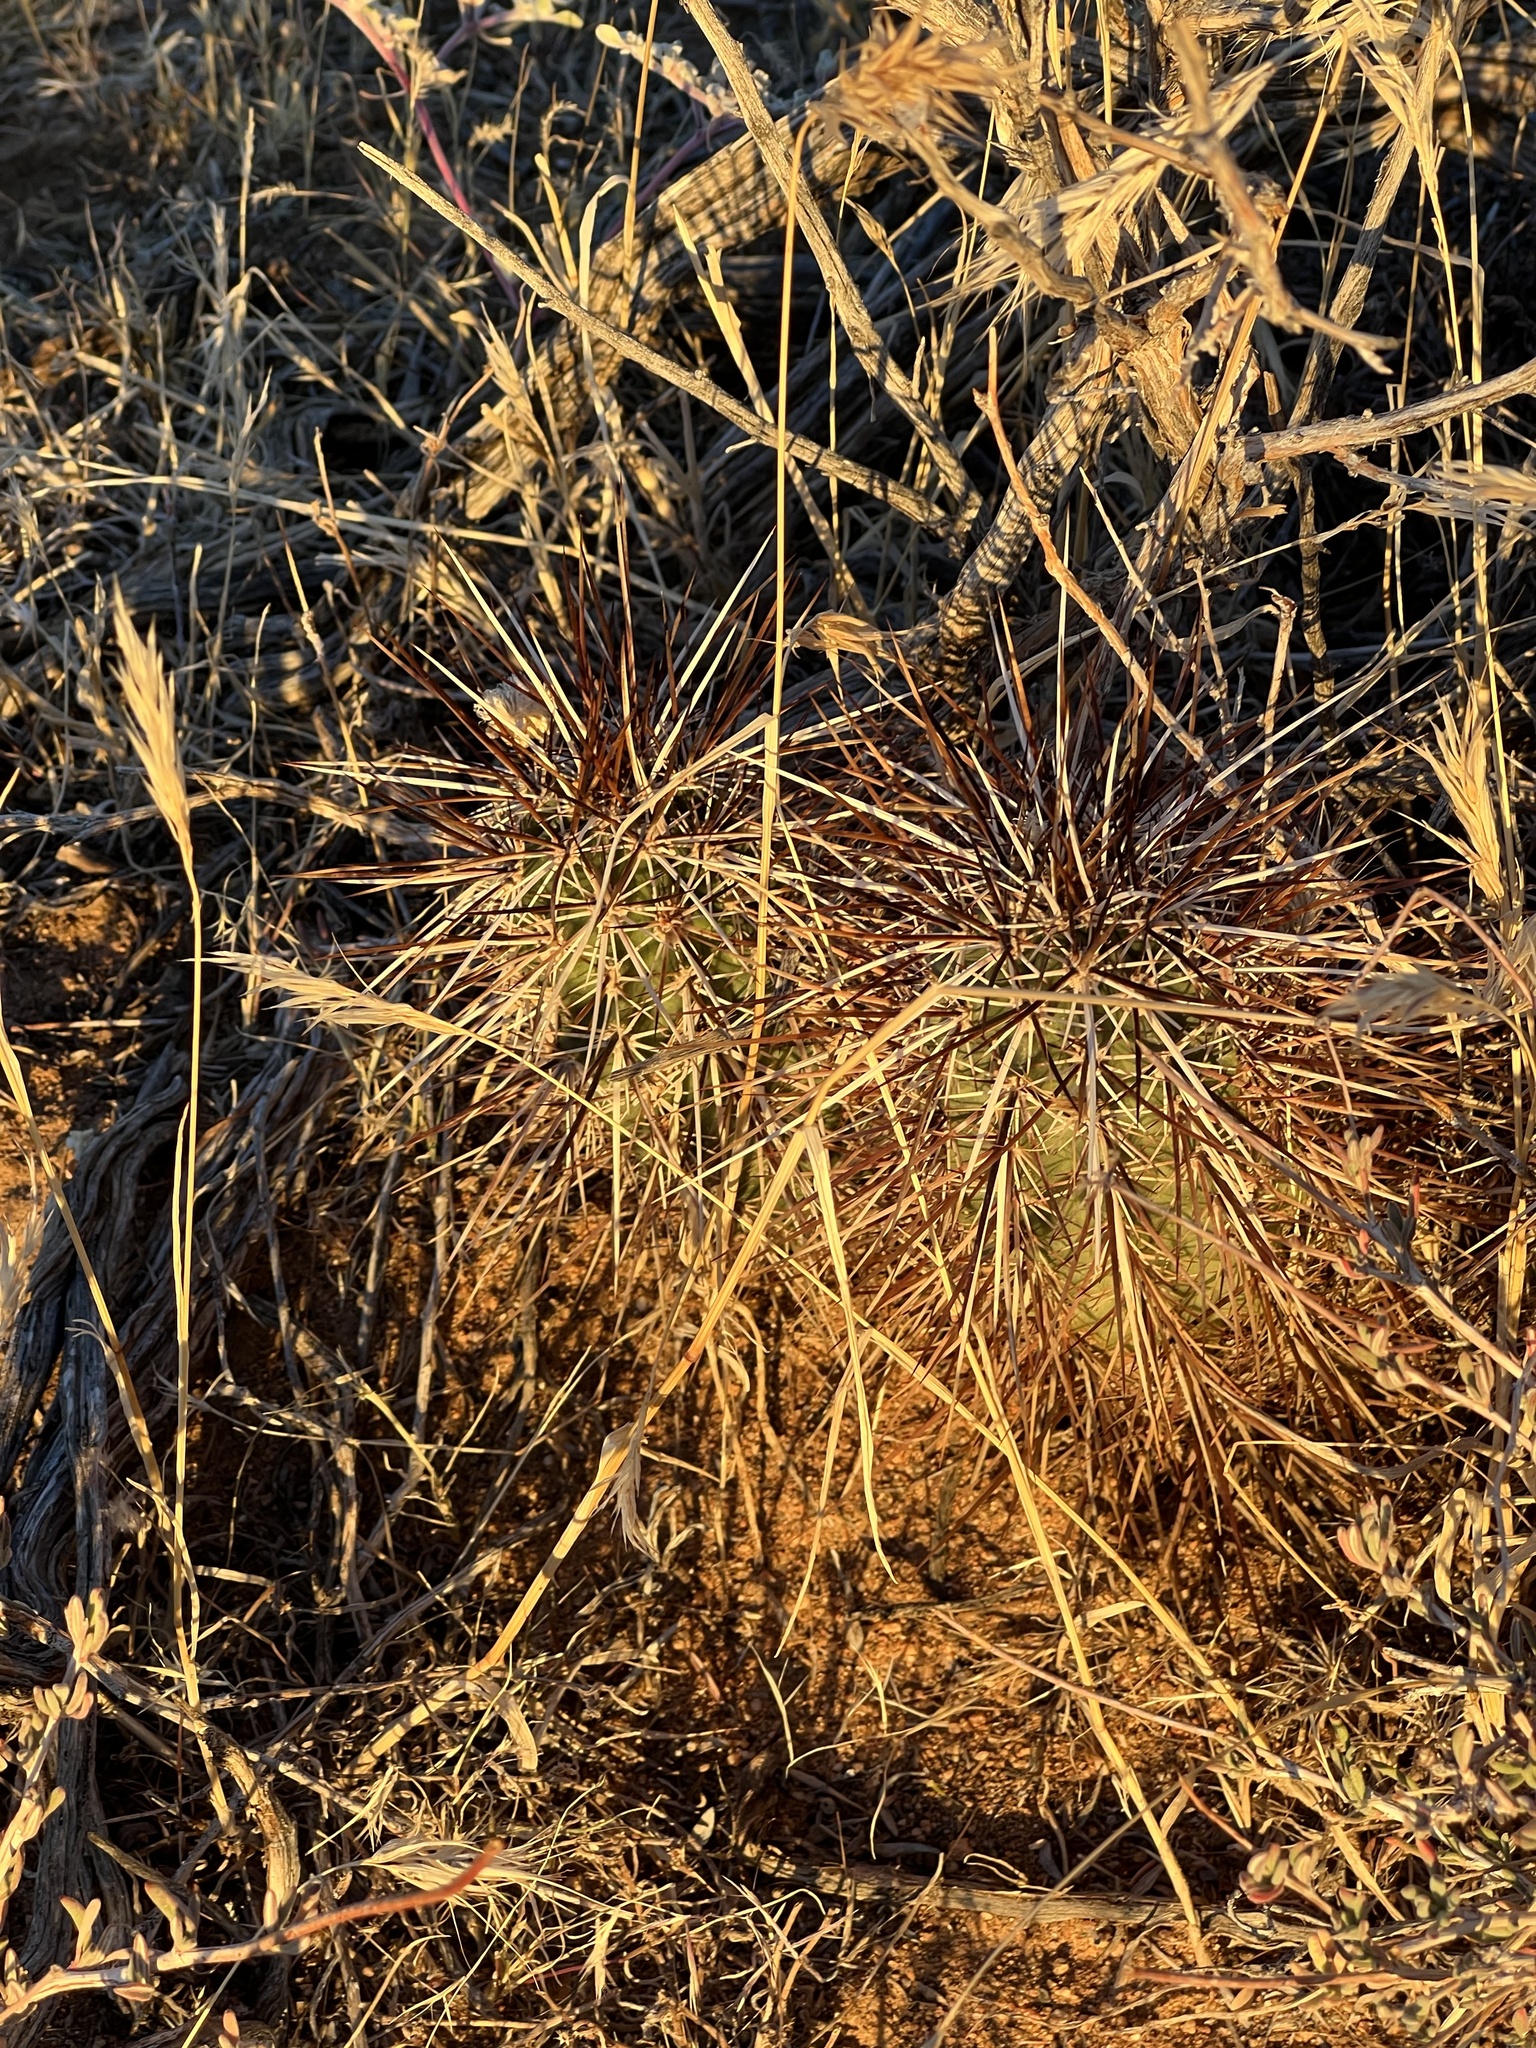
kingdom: Plantae
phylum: Tracheophyta
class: Magnoliopsida
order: Caryophyllales
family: Cactaceae
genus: Echinocereus
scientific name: Echinocereus engelmannii
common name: Engelmann's hedgehog cactus
